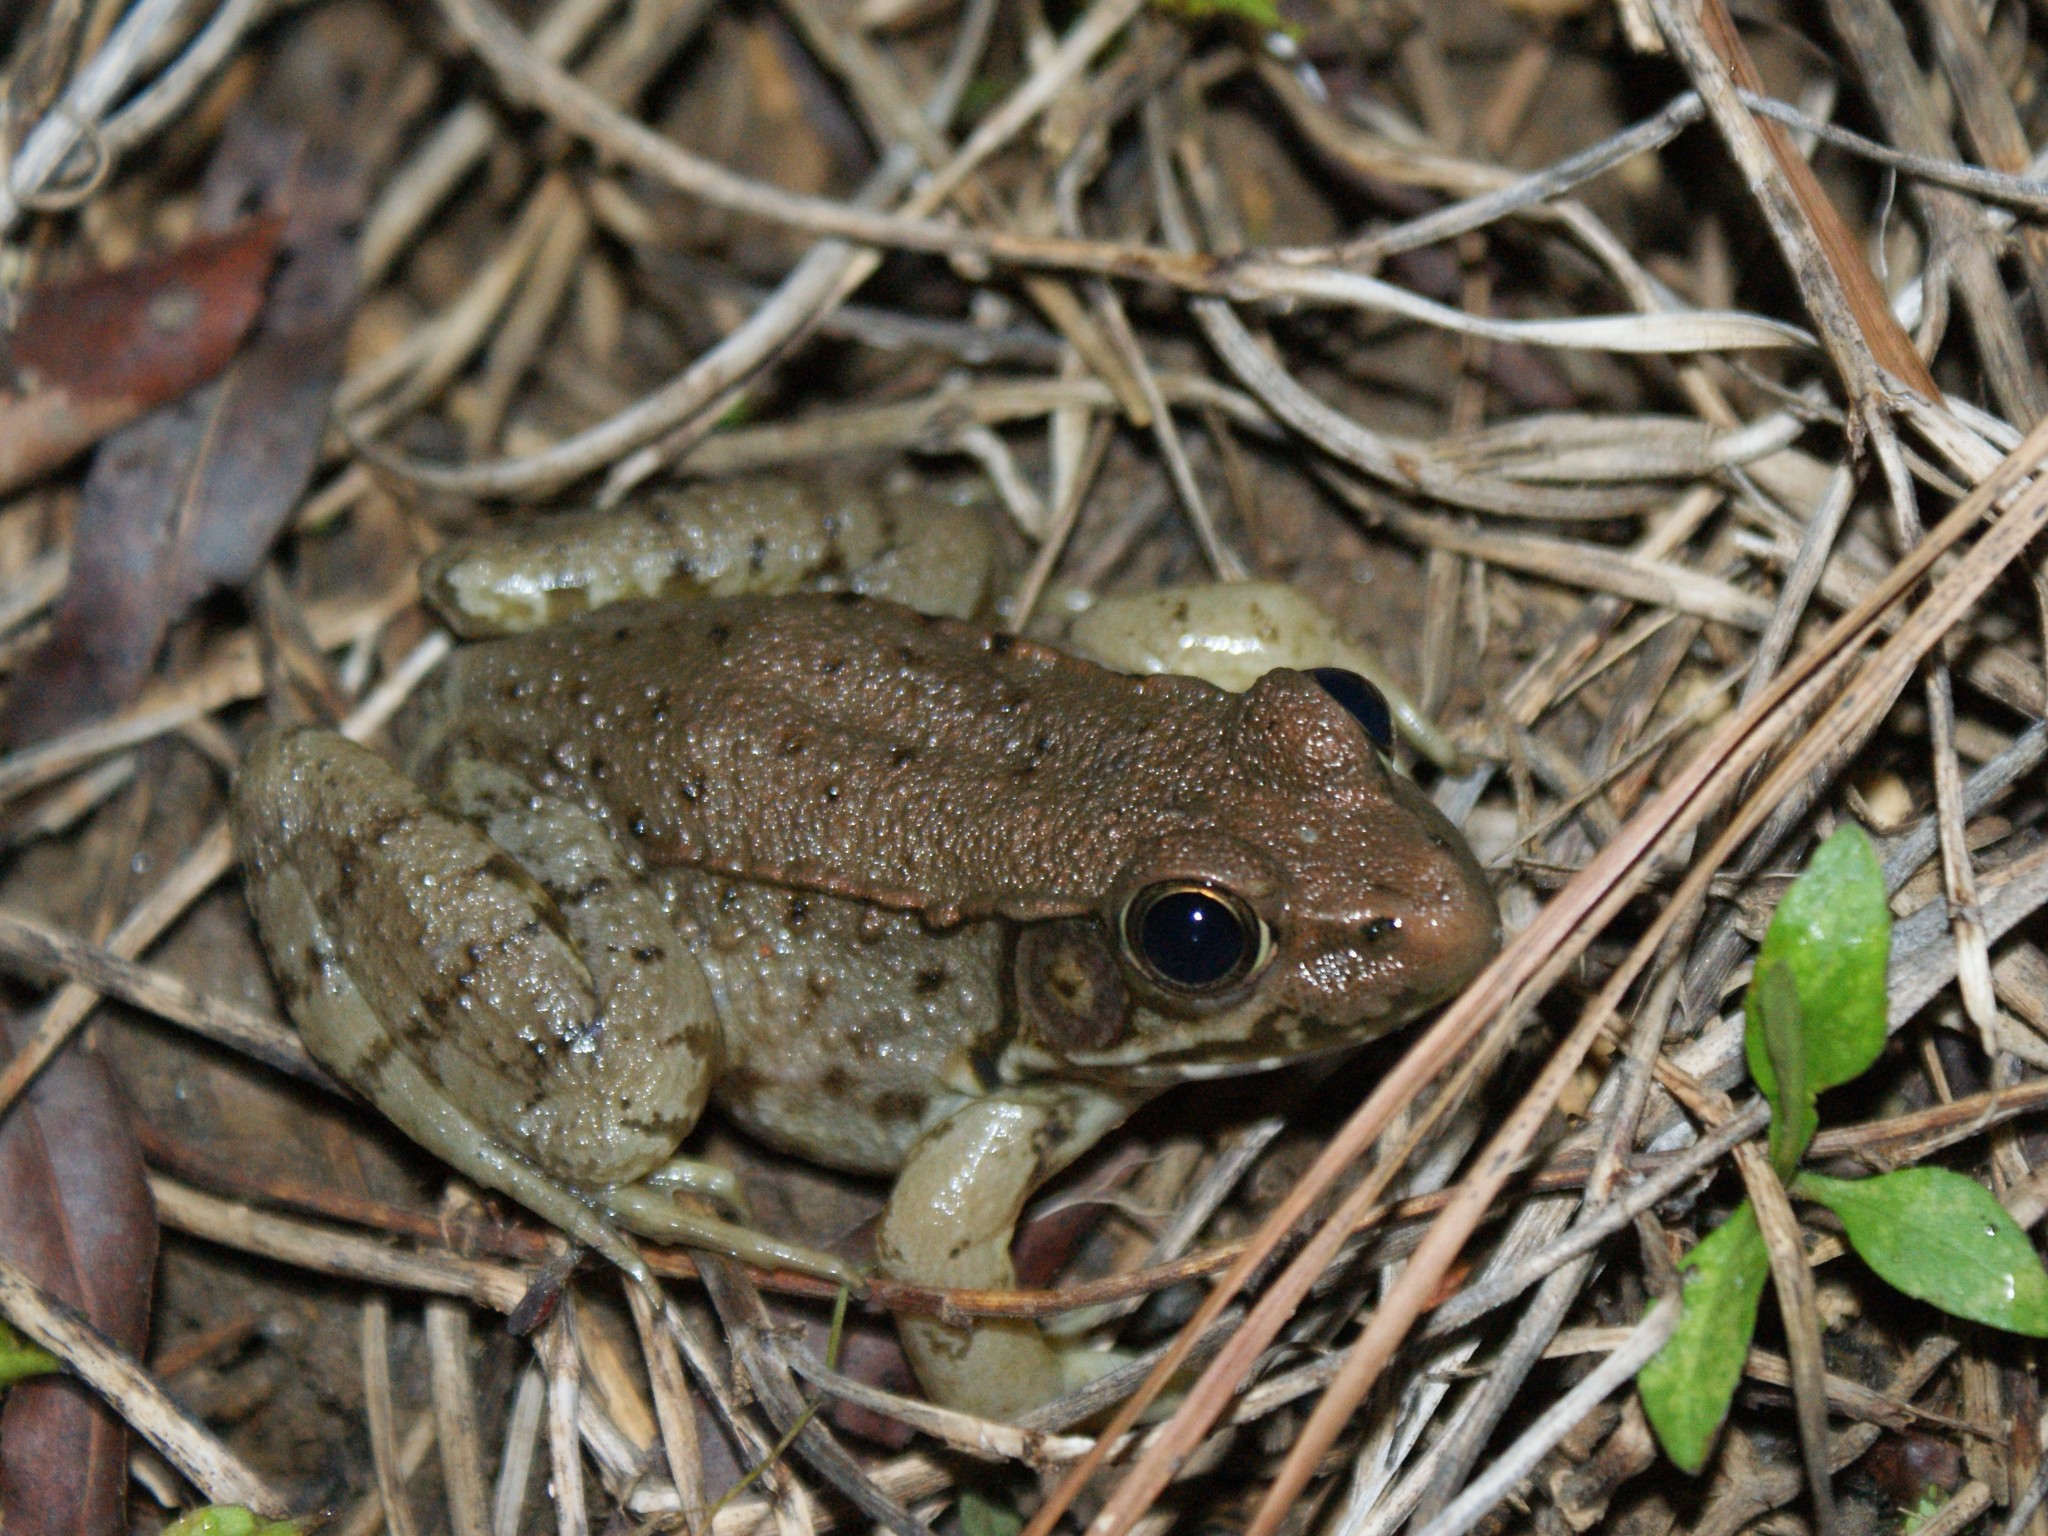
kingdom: Animalia
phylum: Chordata
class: Amphibia
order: Anura
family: Ranidae
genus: Lithobates
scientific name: Lithobates clamitans
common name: Green frog
